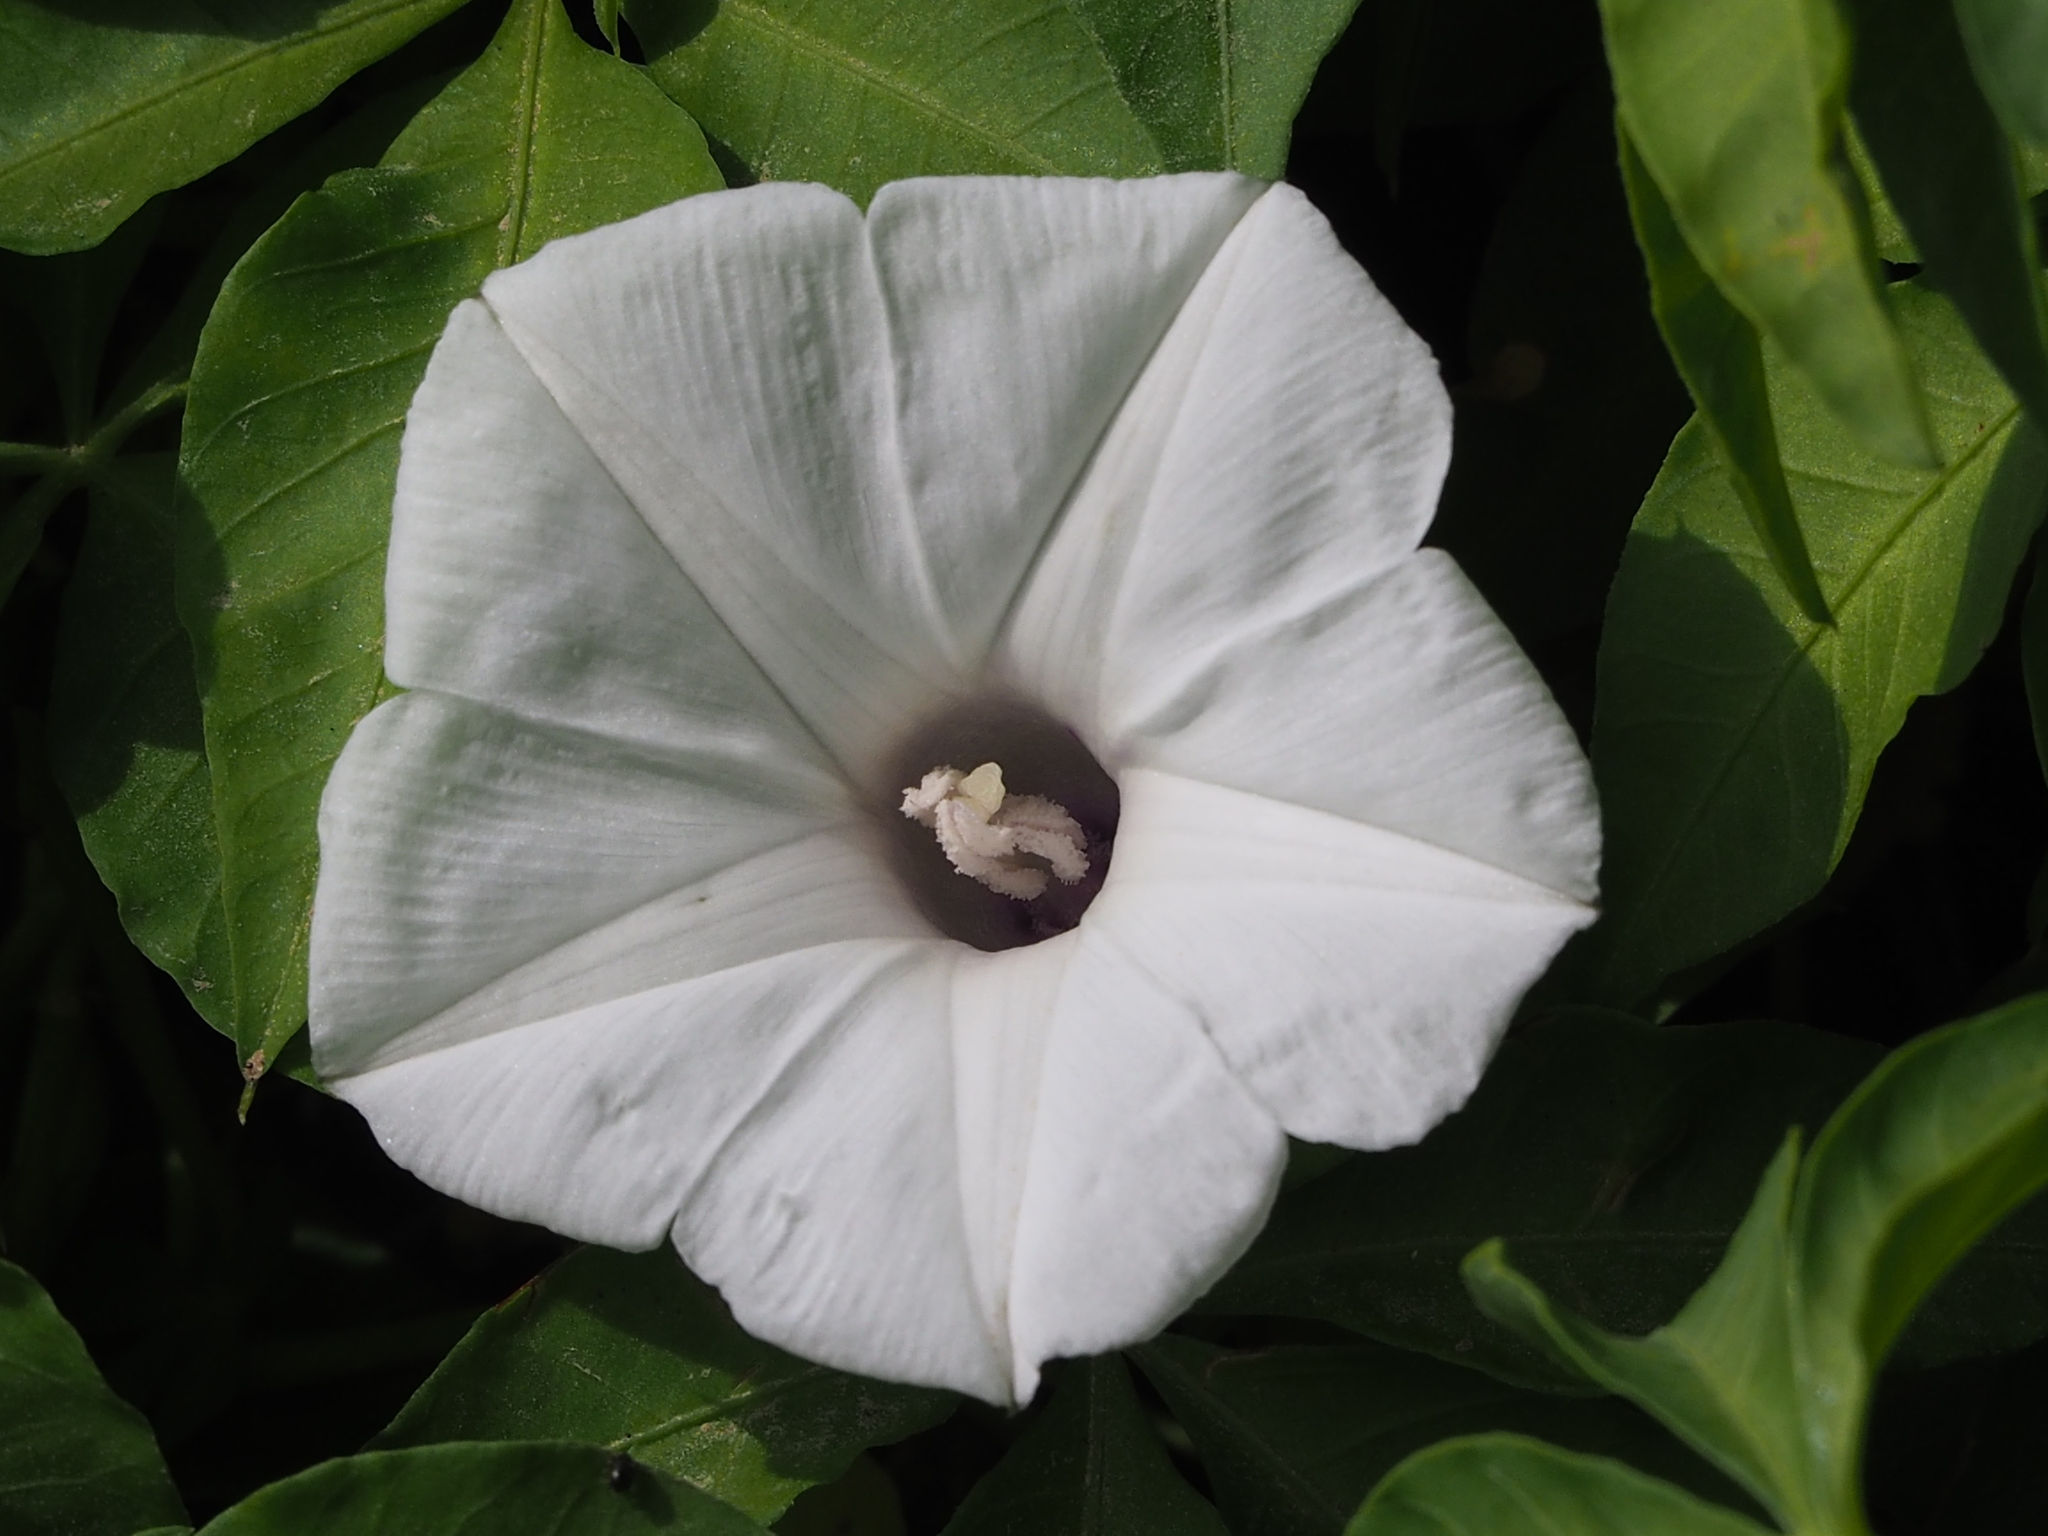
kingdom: Plantae
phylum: Tracheophyta
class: Magnoliopsida
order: Solanales
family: Convolvulaceae
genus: Ipomoea
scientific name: Ipomoea cairica
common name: Mile a minute vine
